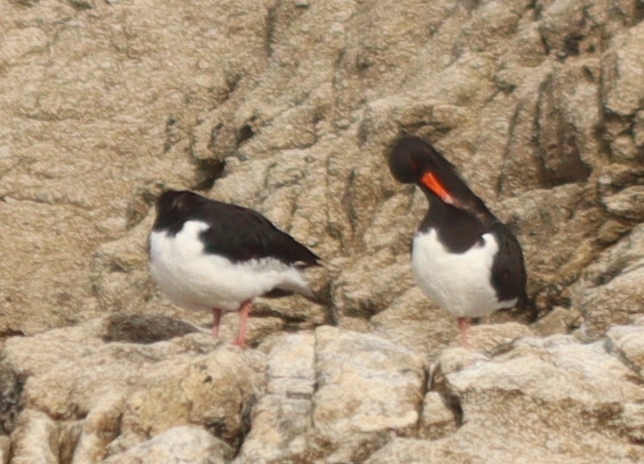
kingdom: Animalia
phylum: Chordata
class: Aves
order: Charadriiformes
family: Haematopodidae
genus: Haematopus
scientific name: Haematopus ostralegus
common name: Eurasian oystercatcher
